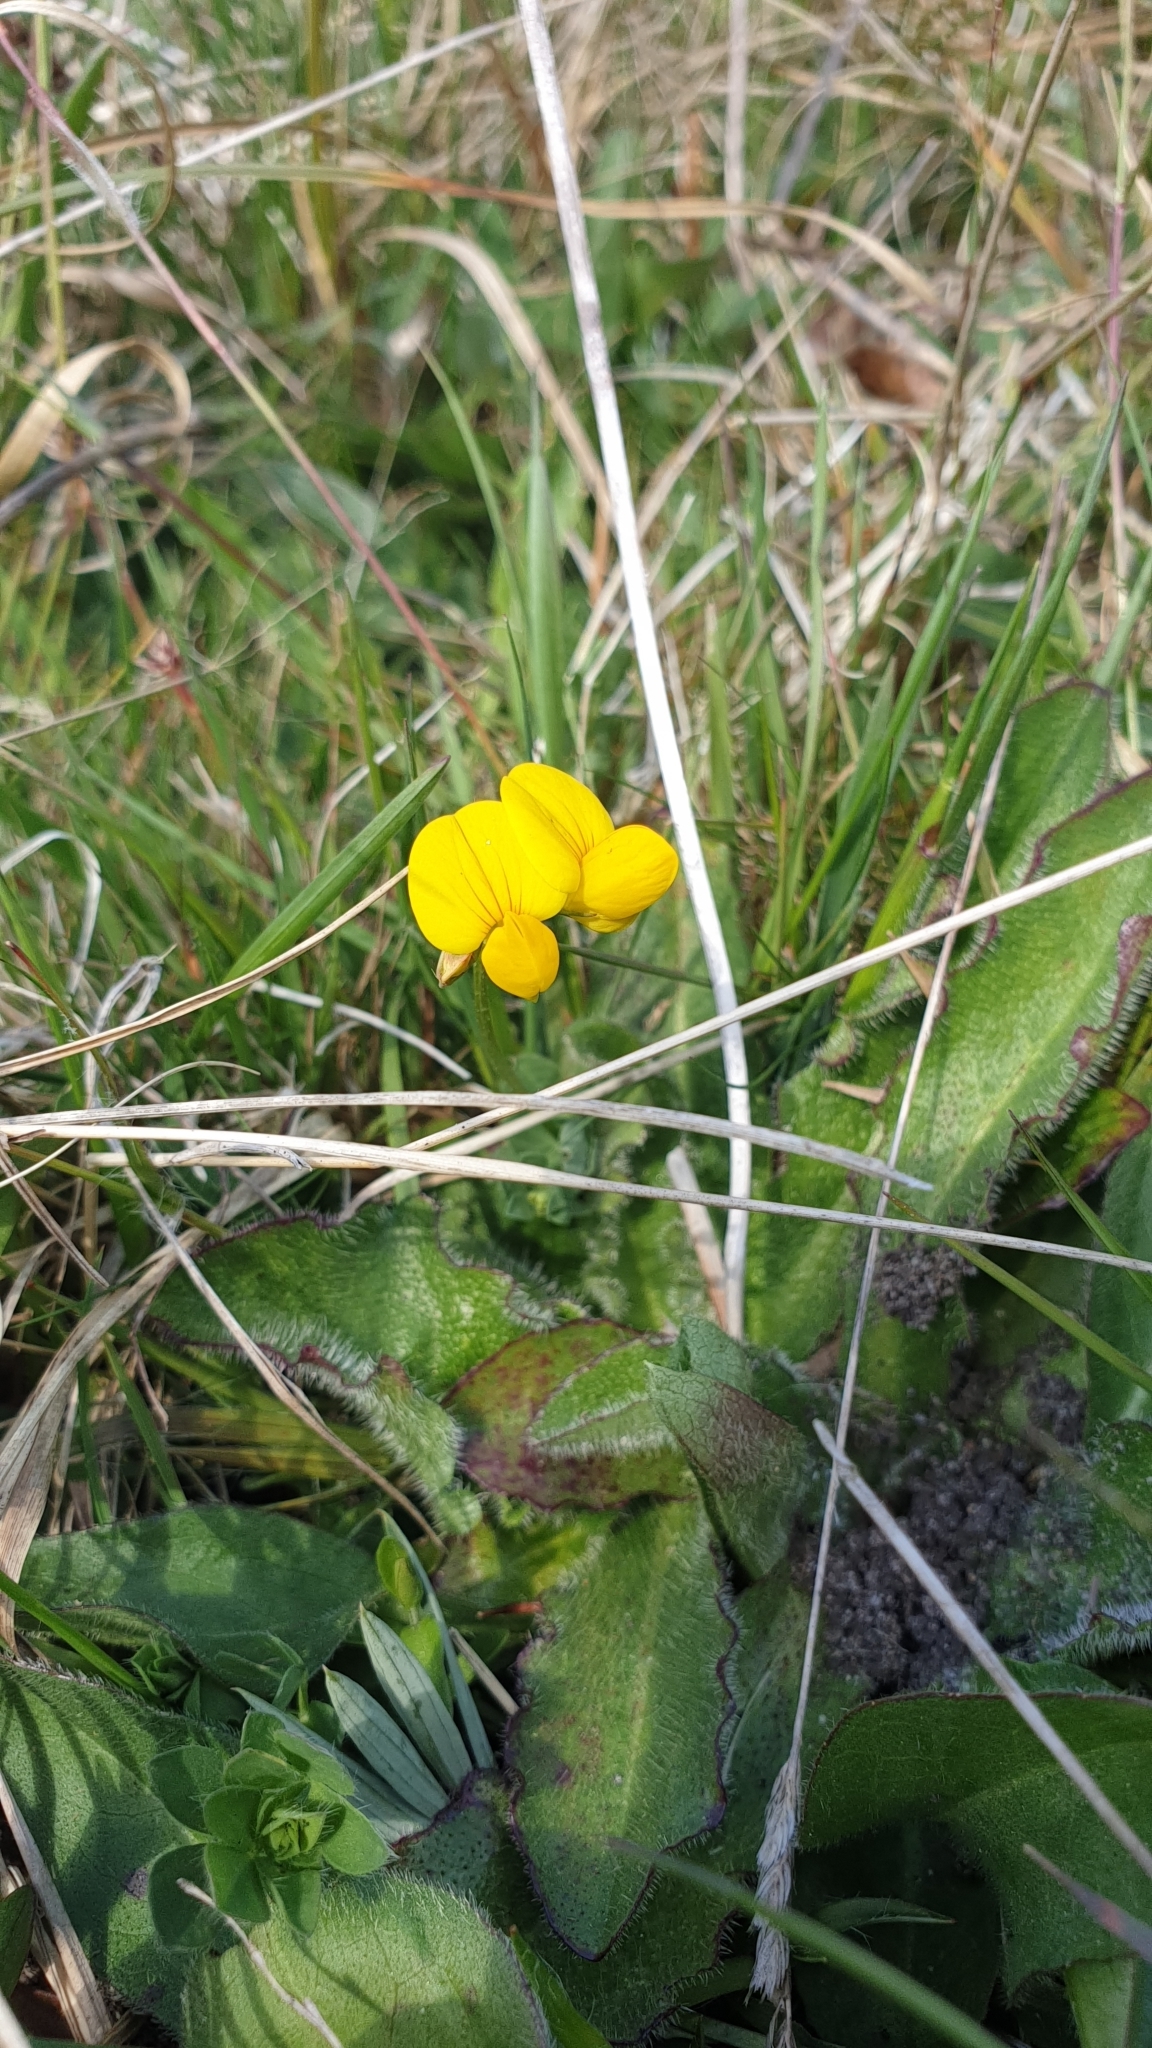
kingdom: Plantae
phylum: Tracheophyta
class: Magnoliopsida
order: Fabales
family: Fabaceae
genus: Lotus
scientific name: Lotus corniculatus
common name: Common bird's-foot-trefoil
